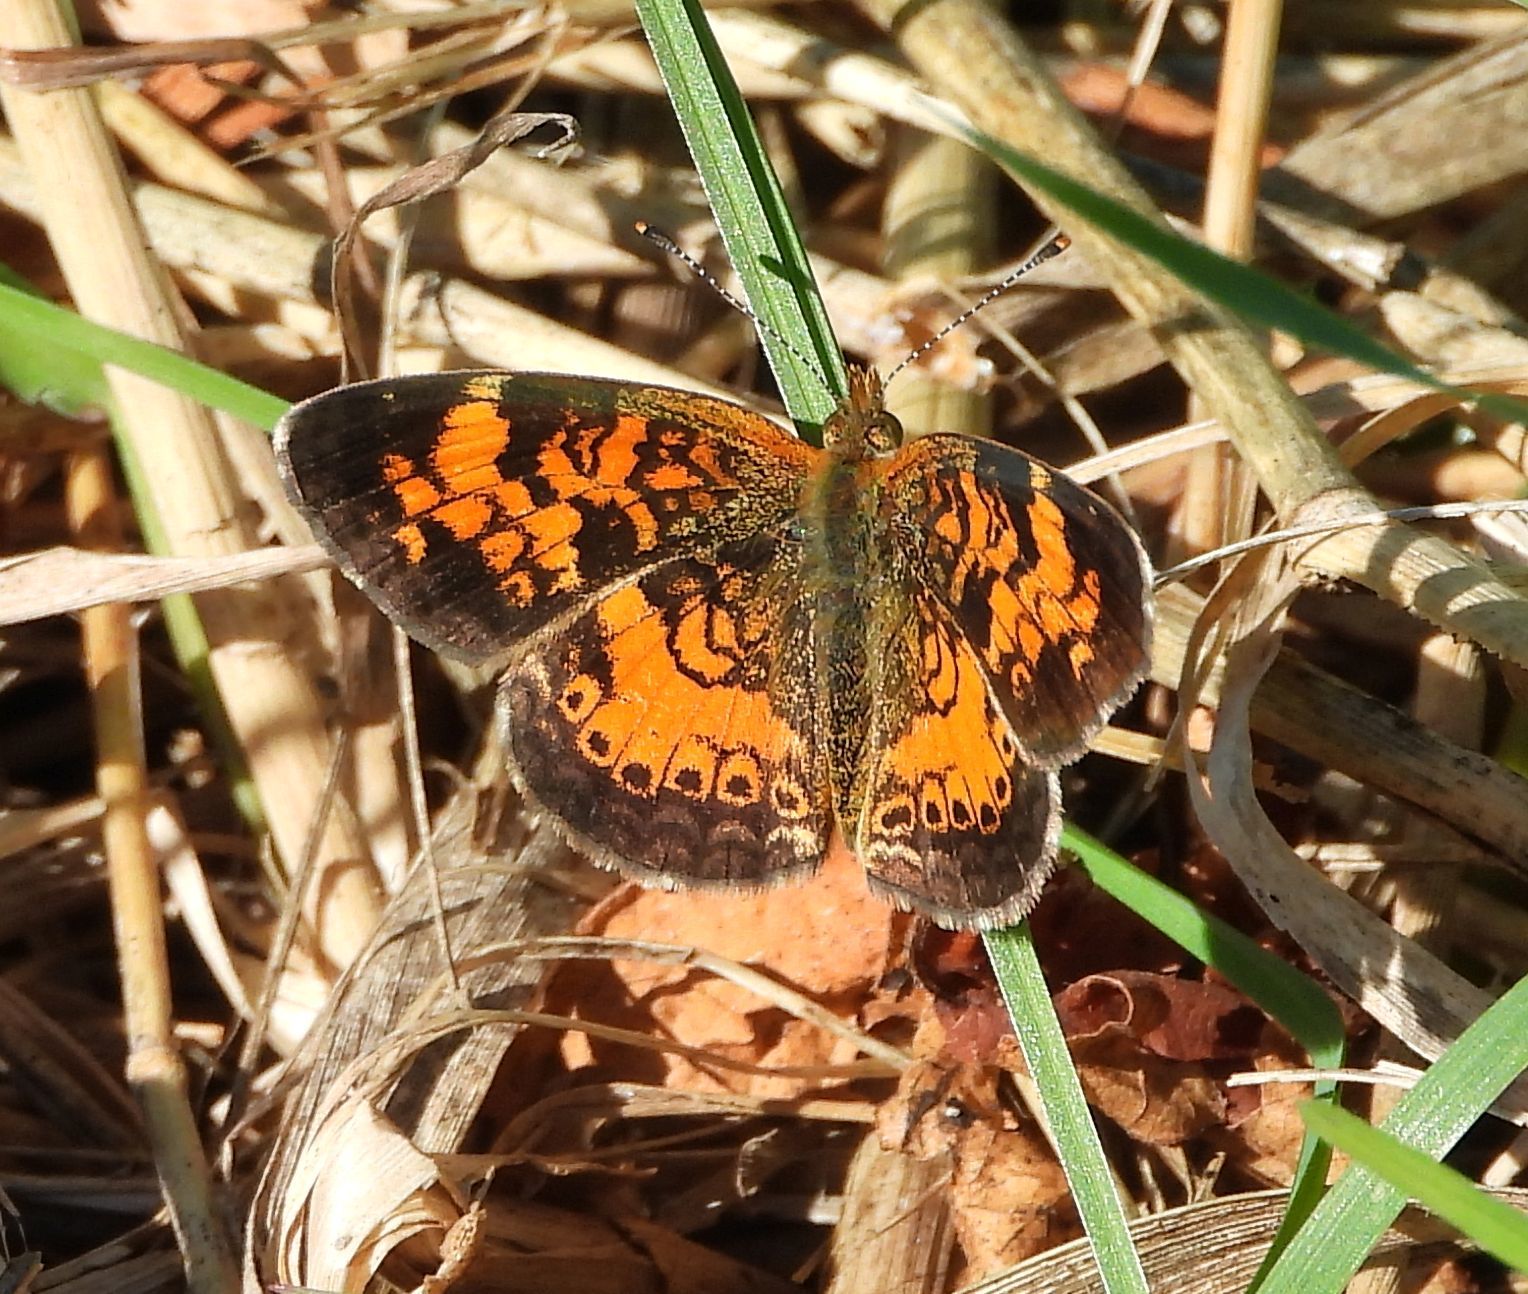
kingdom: Animalia
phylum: Arthropoda
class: Insecta
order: Lepidoptera
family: Nymphalidae
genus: Phyciodes
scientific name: Phyciodes tharos
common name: Pearl crescent
